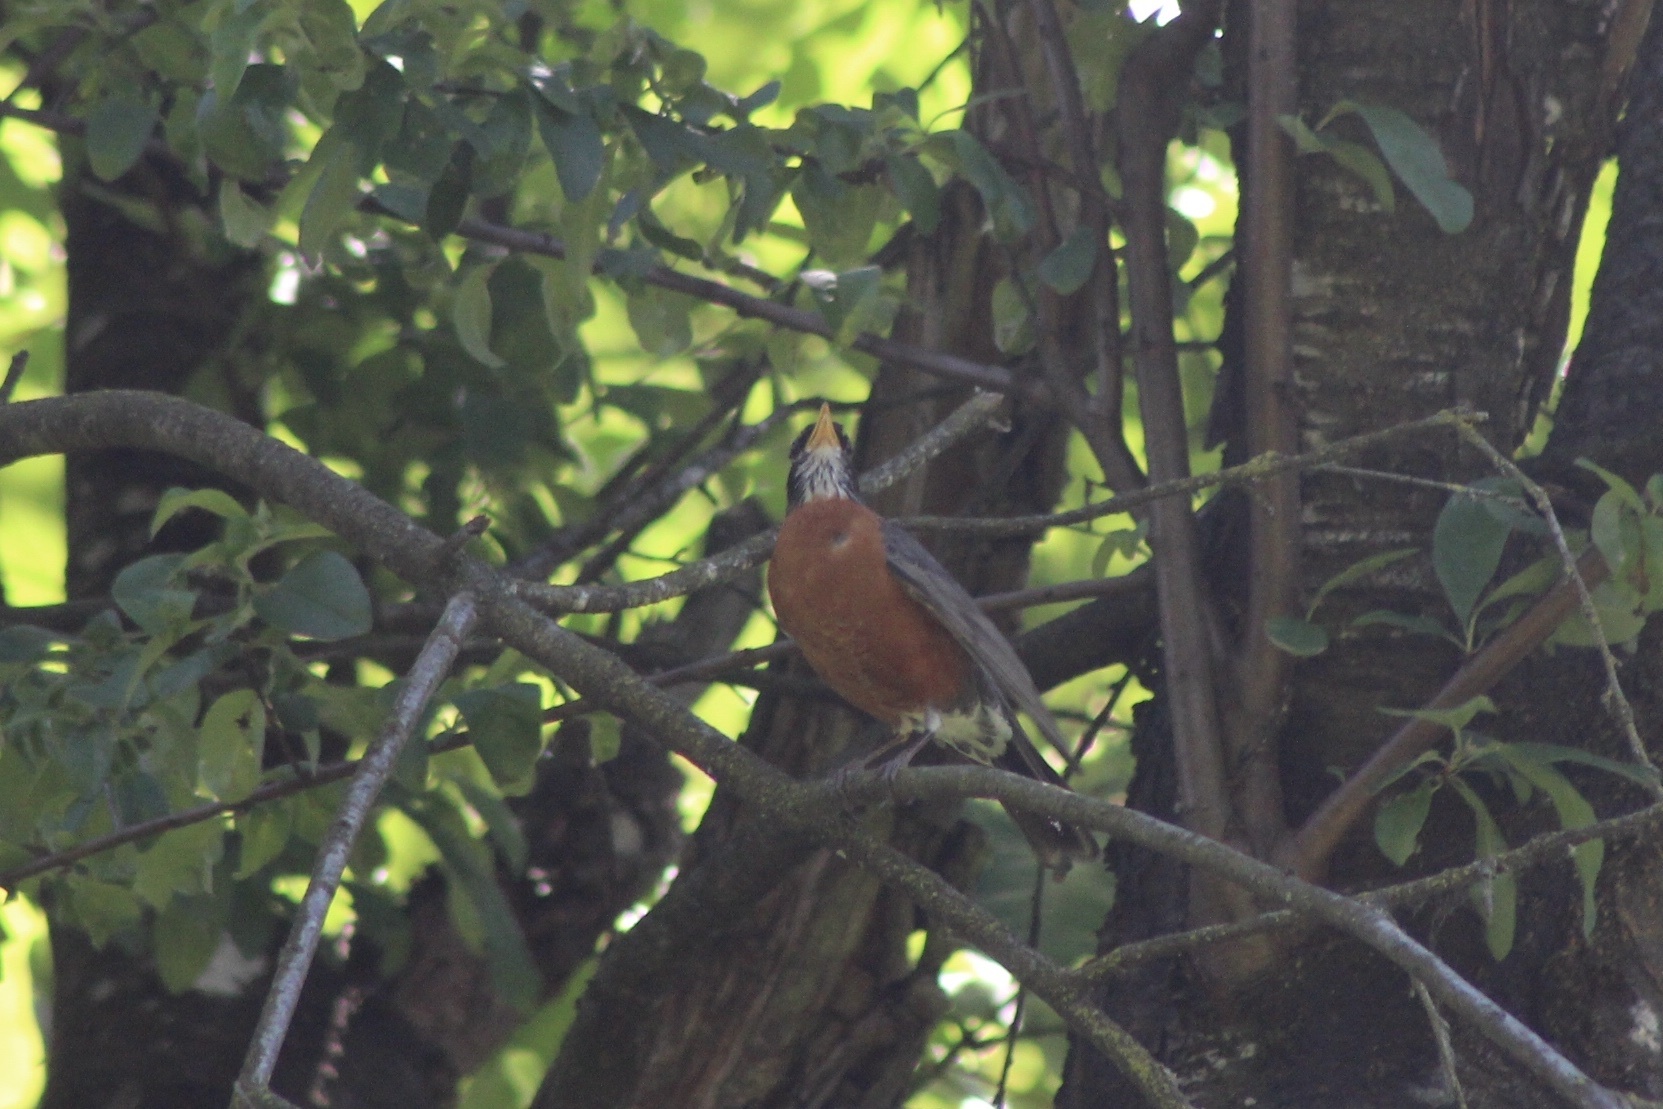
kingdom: Animalia
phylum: Chordata
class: Aves
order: Passeriformes
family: Turdidae
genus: Turdus
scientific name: Turdus migratorius
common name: American robin
